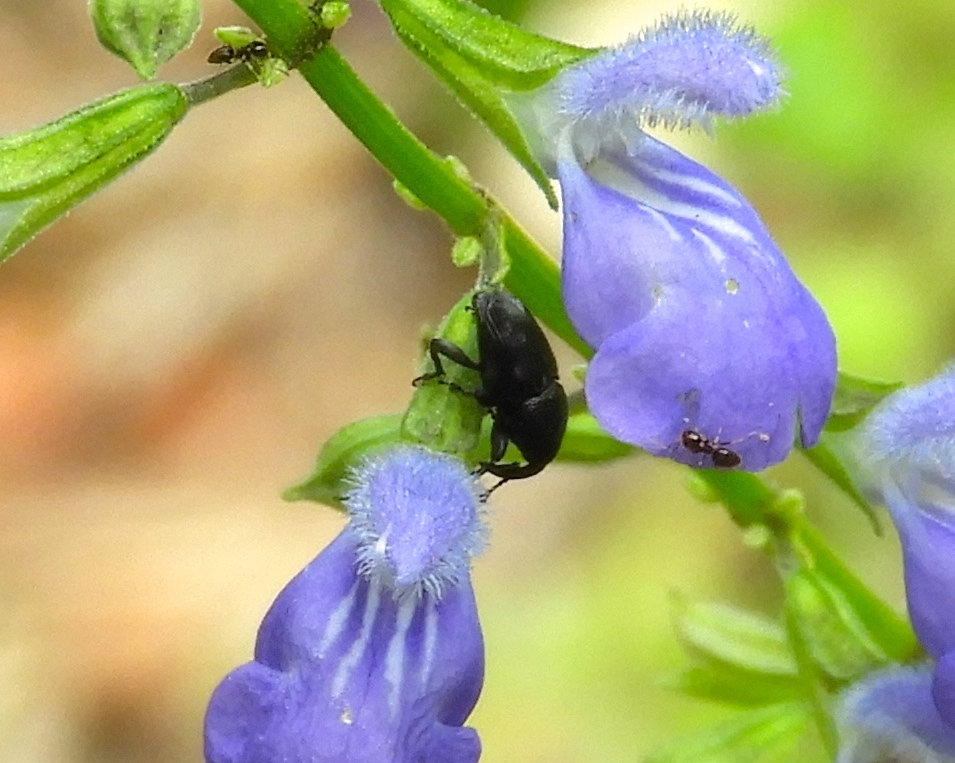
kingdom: Animalia
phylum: Arthropoda
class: Insecta
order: Coleoptera
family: Curculionidae
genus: Baridinae
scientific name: Baridinae
